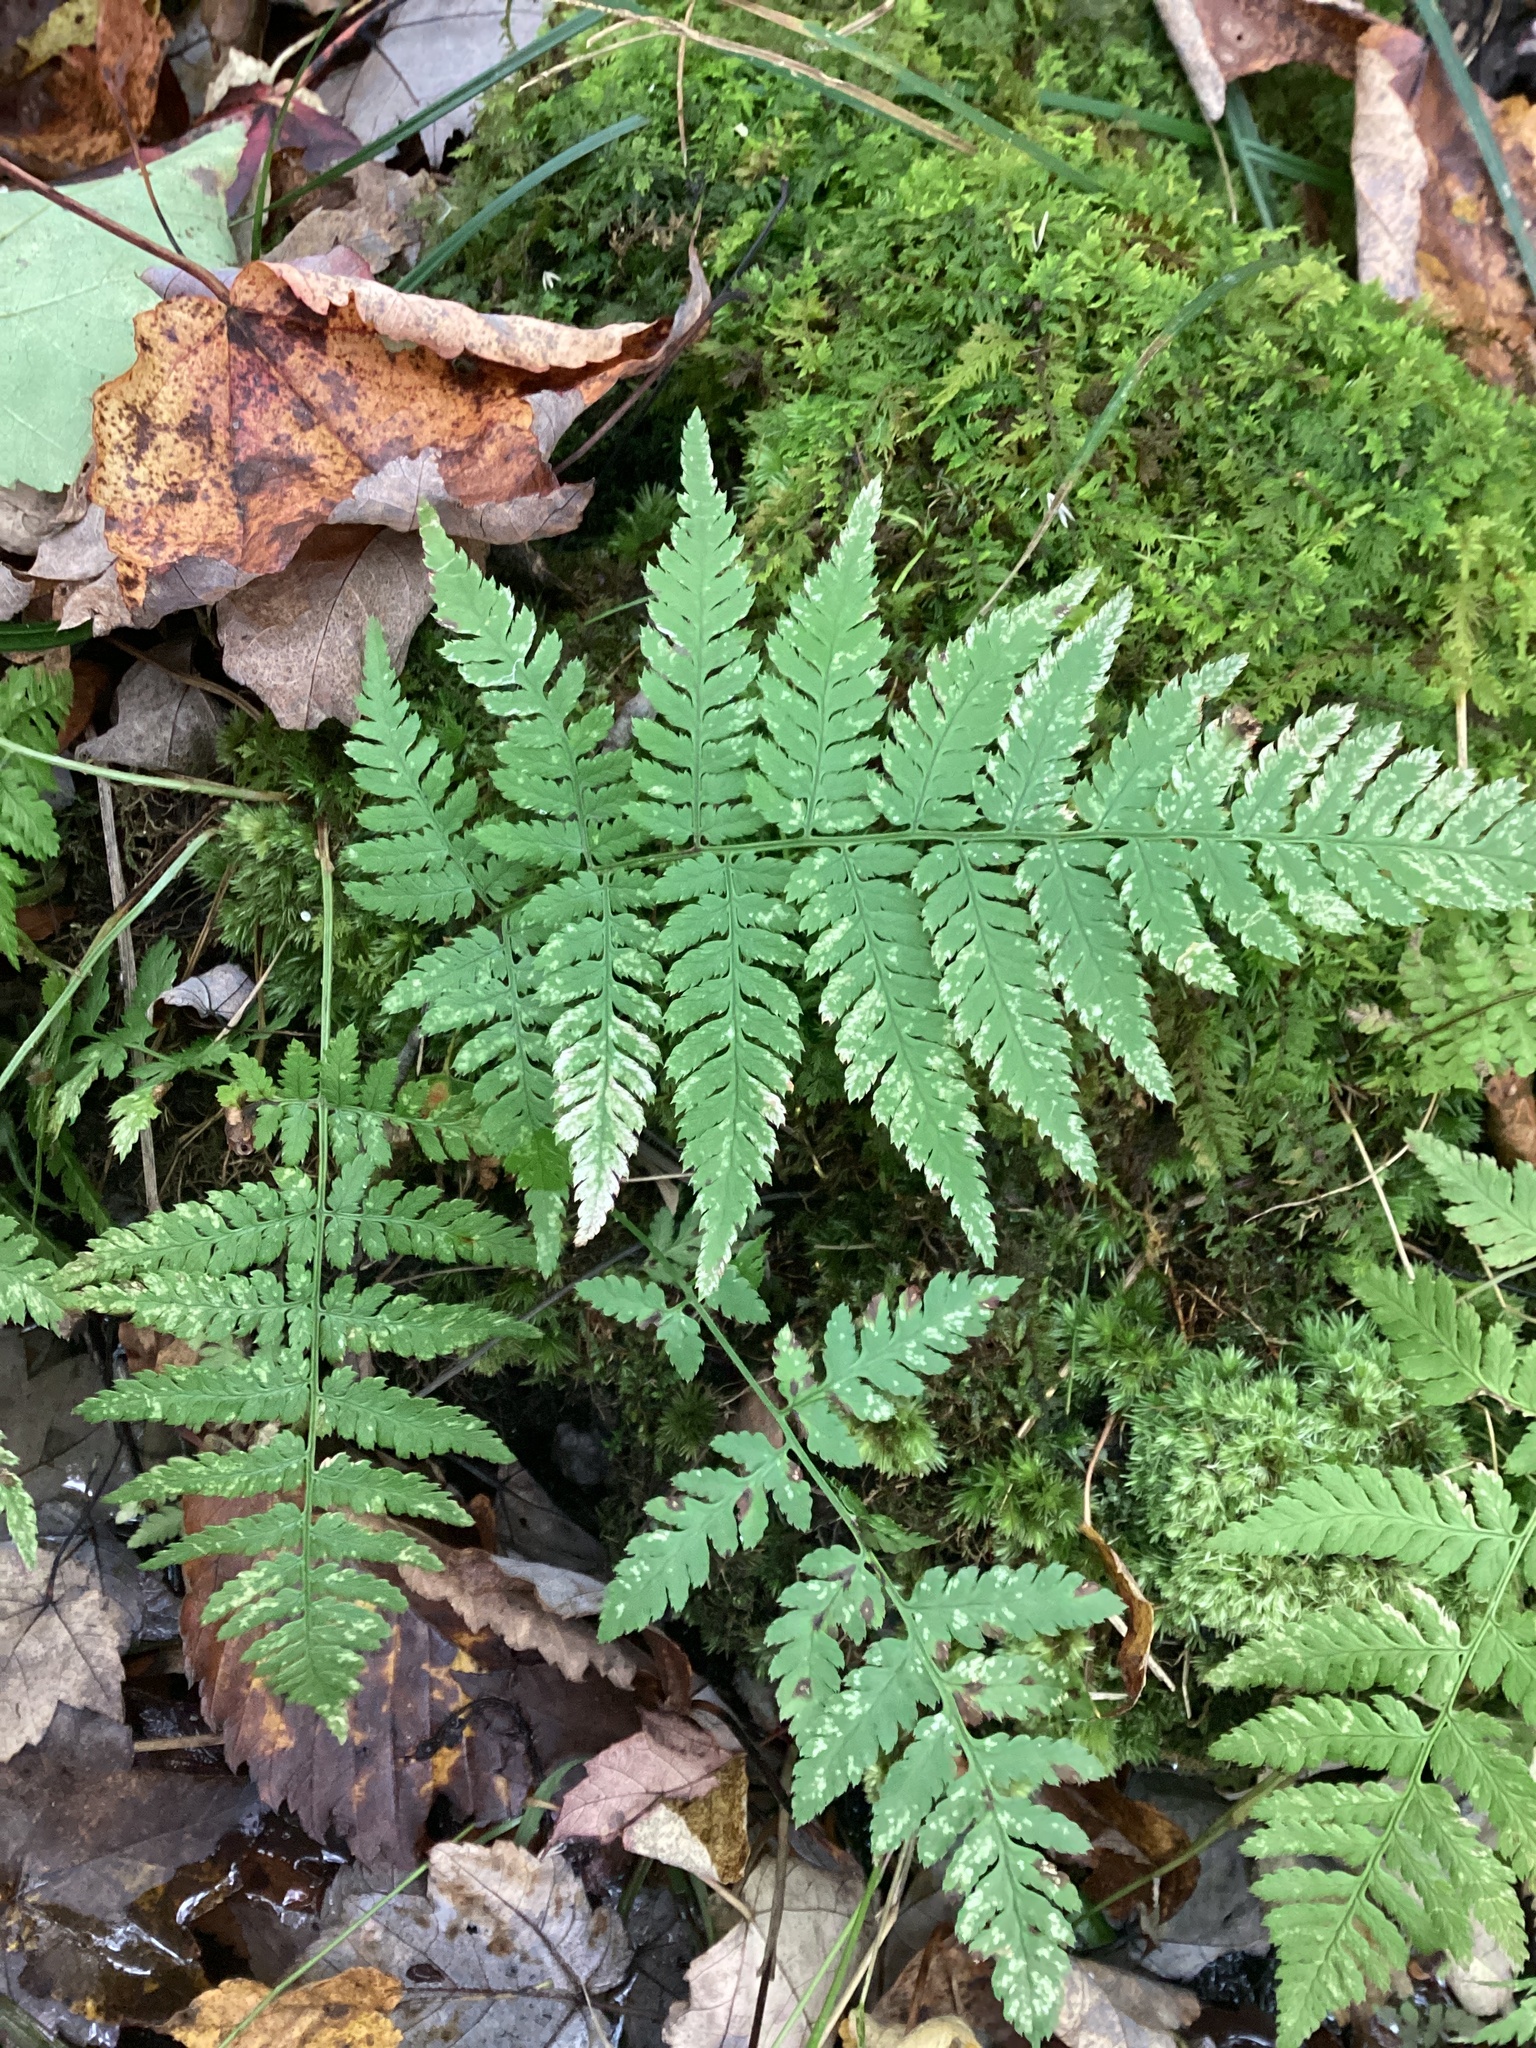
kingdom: Plantae
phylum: Tracheophyta
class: Polypodiopsida
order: Polypodiales
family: Dryopteridaceae
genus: Dryopteris
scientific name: Dryopteris carthusiana
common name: Narrow buckler-fern
